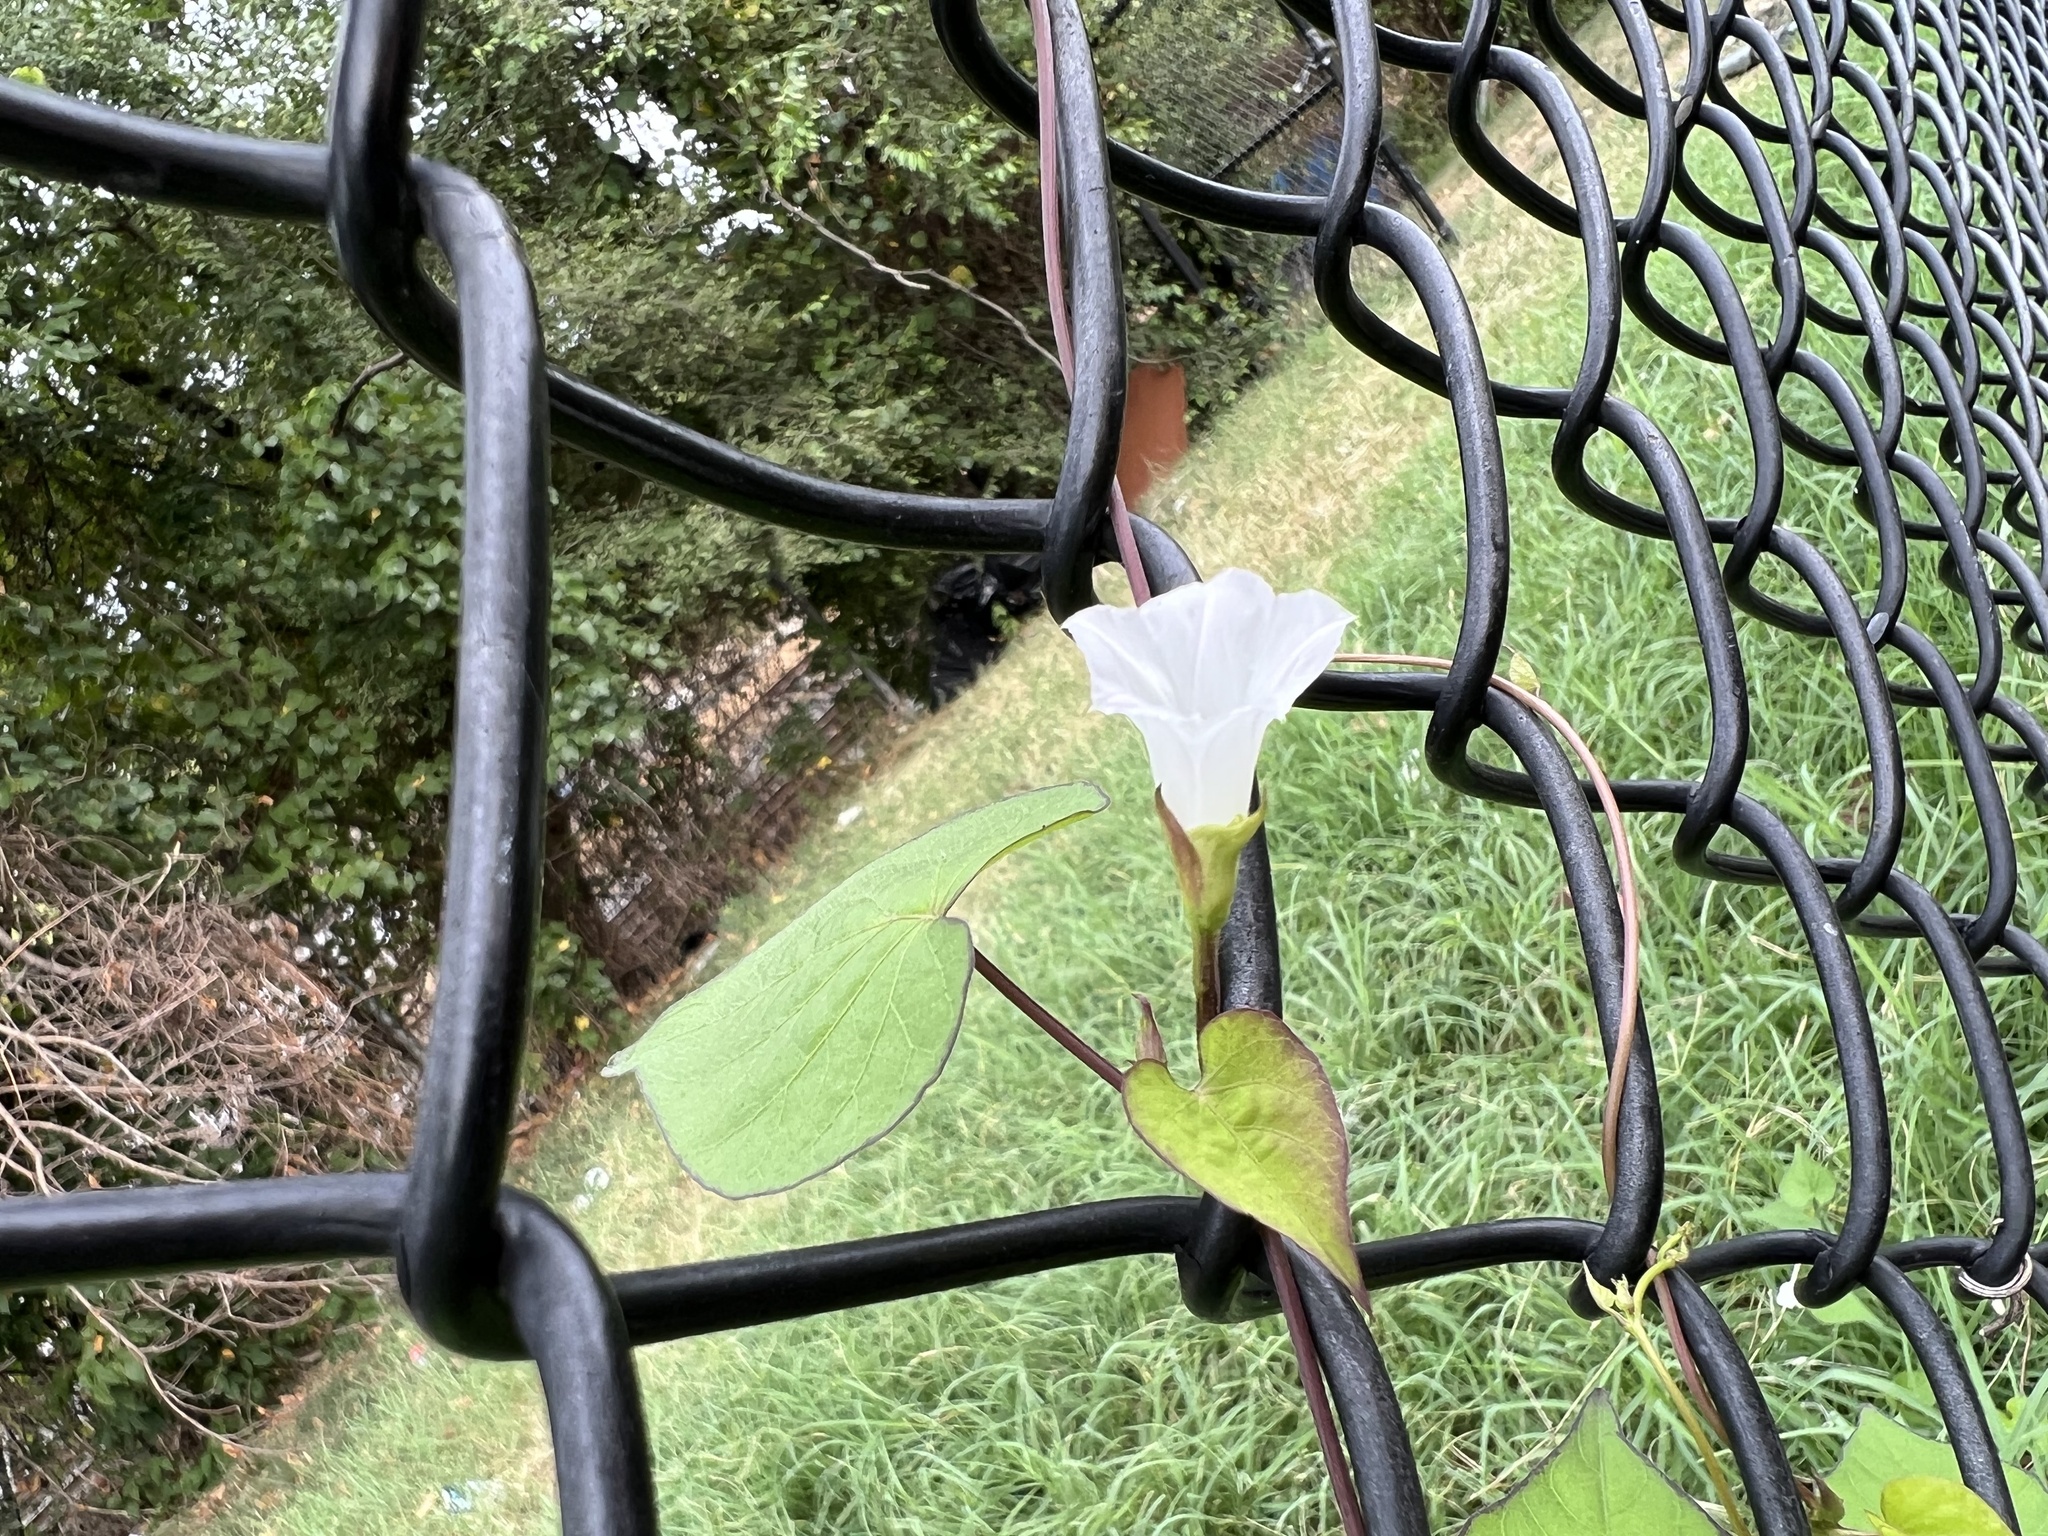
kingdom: Plantae
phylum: Tracheophyta
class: Magnoliopsida
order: Solanales
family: Convolvulaceae
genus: Ipomoea
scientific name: Ipomoea lacunosa
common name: White morning-glory
